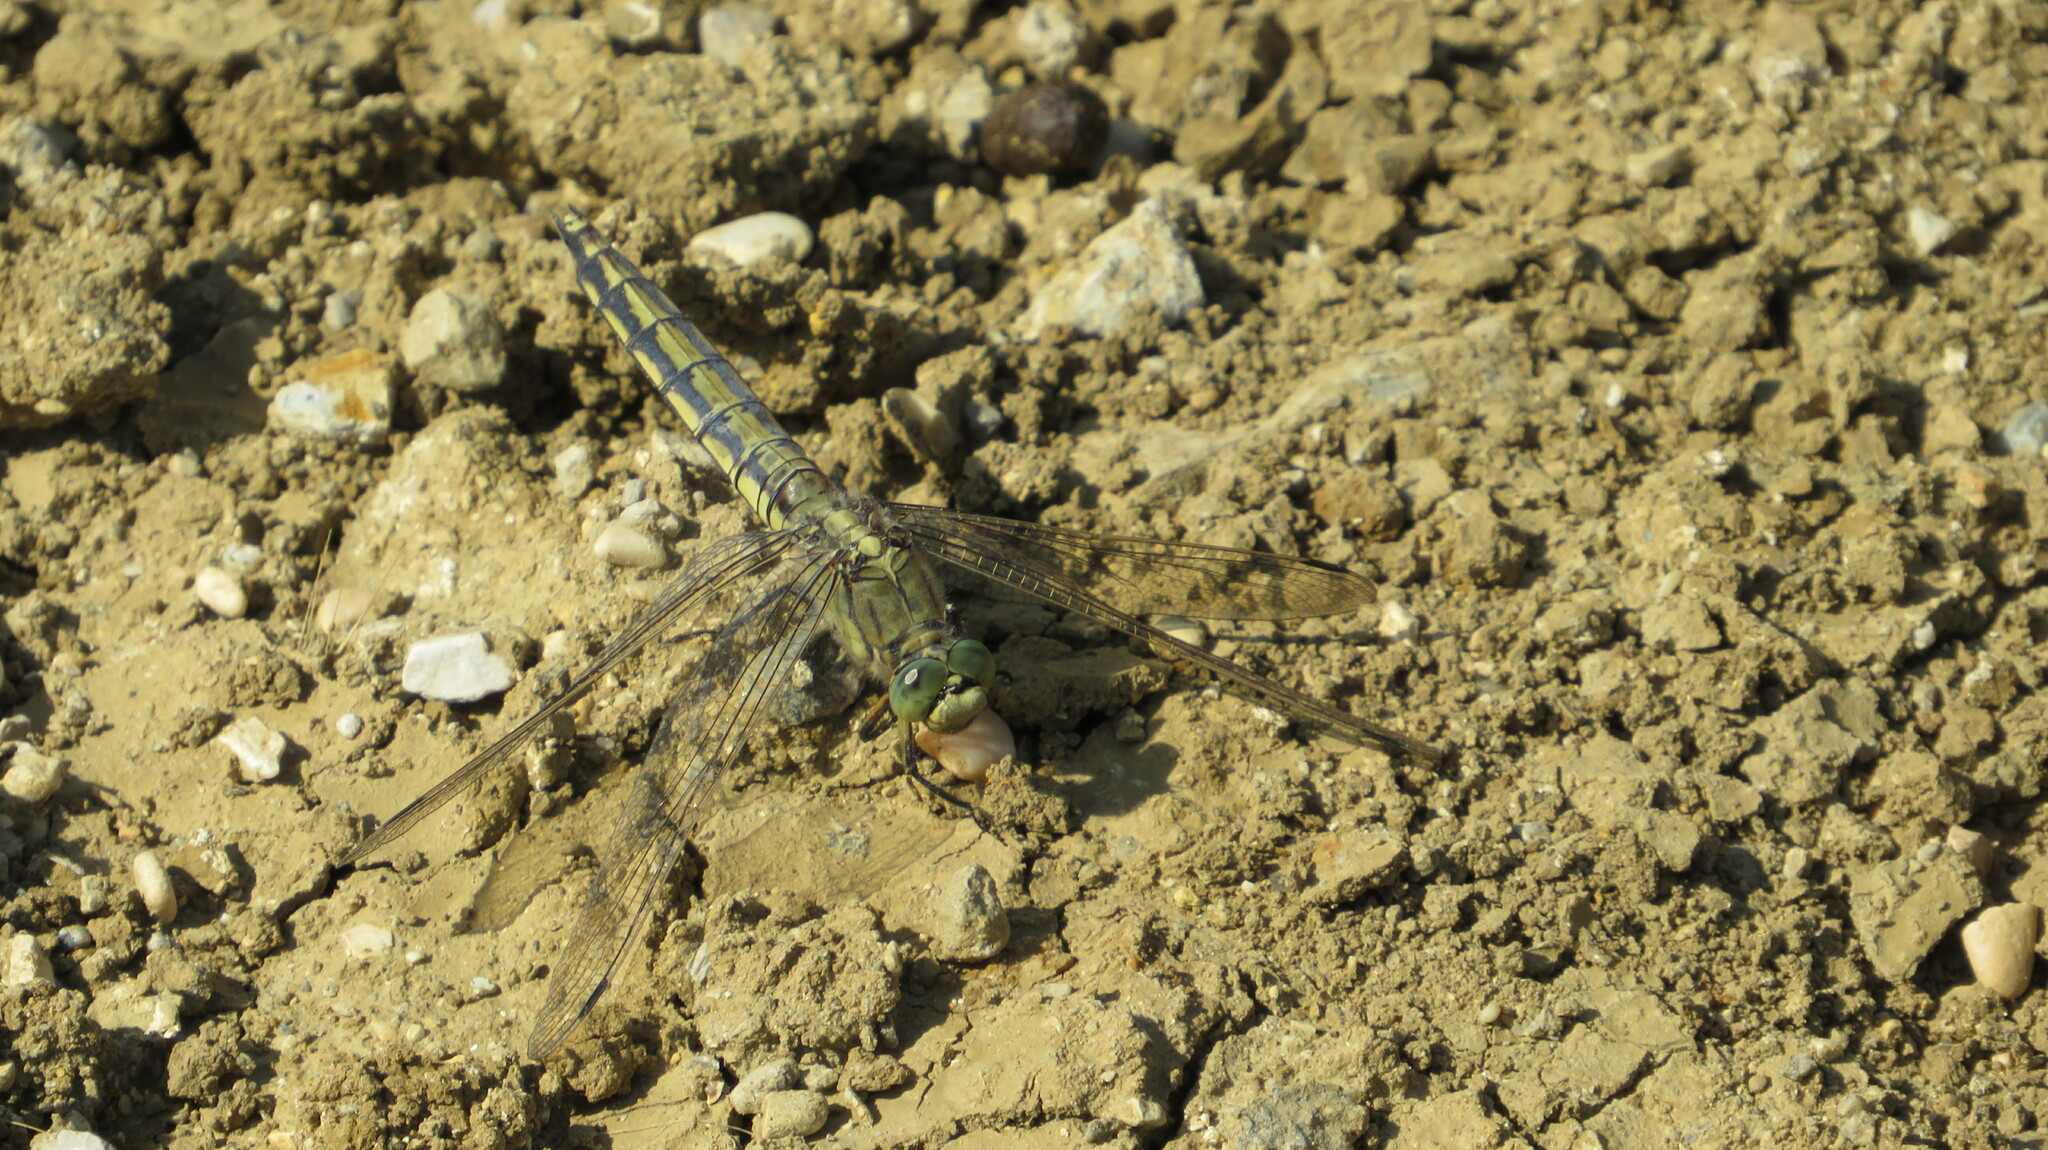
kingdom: Animalia
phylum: Arthropoda
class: Insecta
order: Odonata
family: Libellulidae
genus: Orthetrum
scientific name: Orthetrum cancellatum
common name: Black-tailed skimmer
